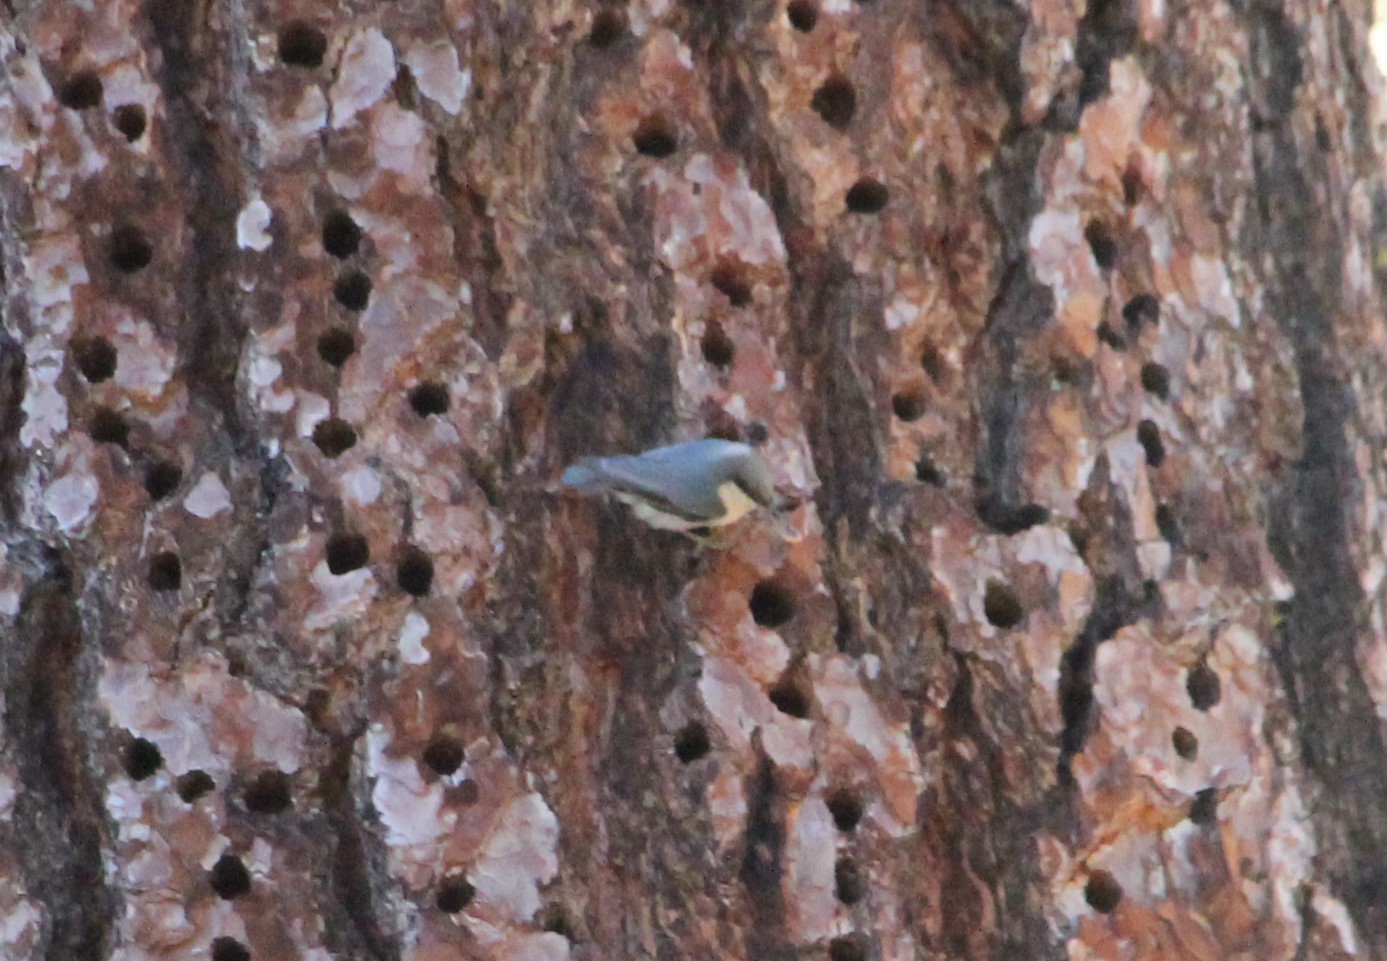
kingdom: Animalia
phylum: Chordata
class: Aves
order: Passeriformes
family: Sittidae
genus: Sitta
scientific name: Sitta pygmaea
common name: Pygmy nuthatch
